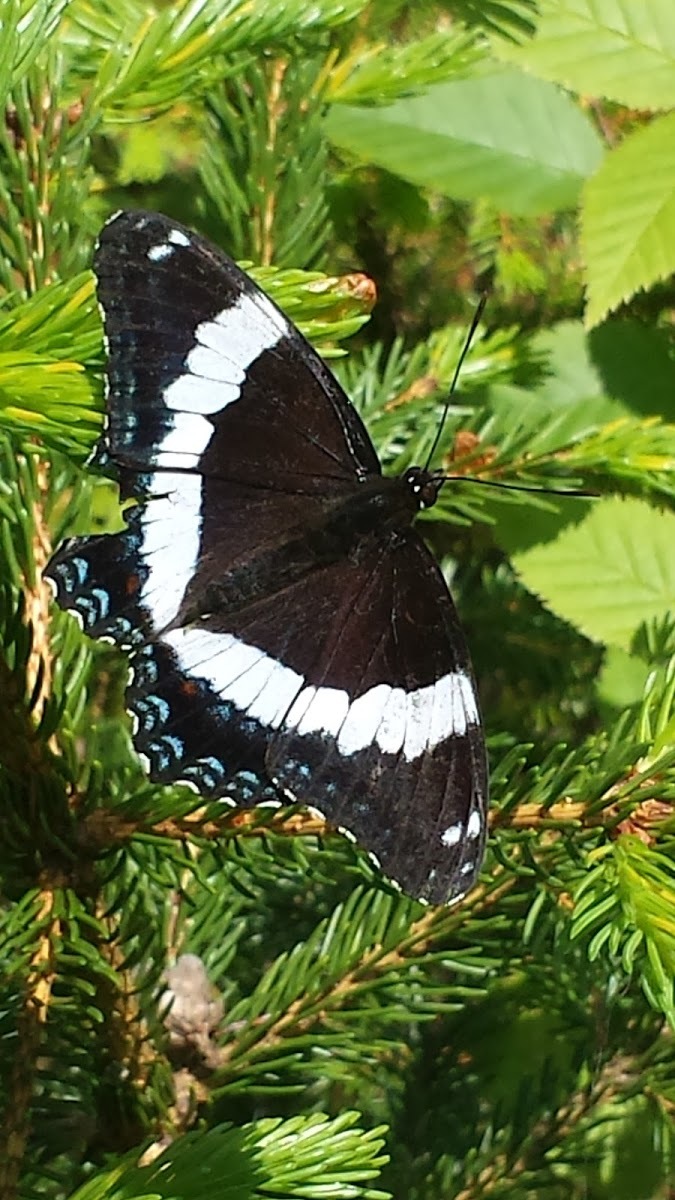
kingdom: Animalia
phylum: Arthropoda
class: Insecta
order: Lepidoptera
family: Nymphalidae
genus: Limenitis
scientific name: Limenitis arthemis
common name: Red-spotted admiral
